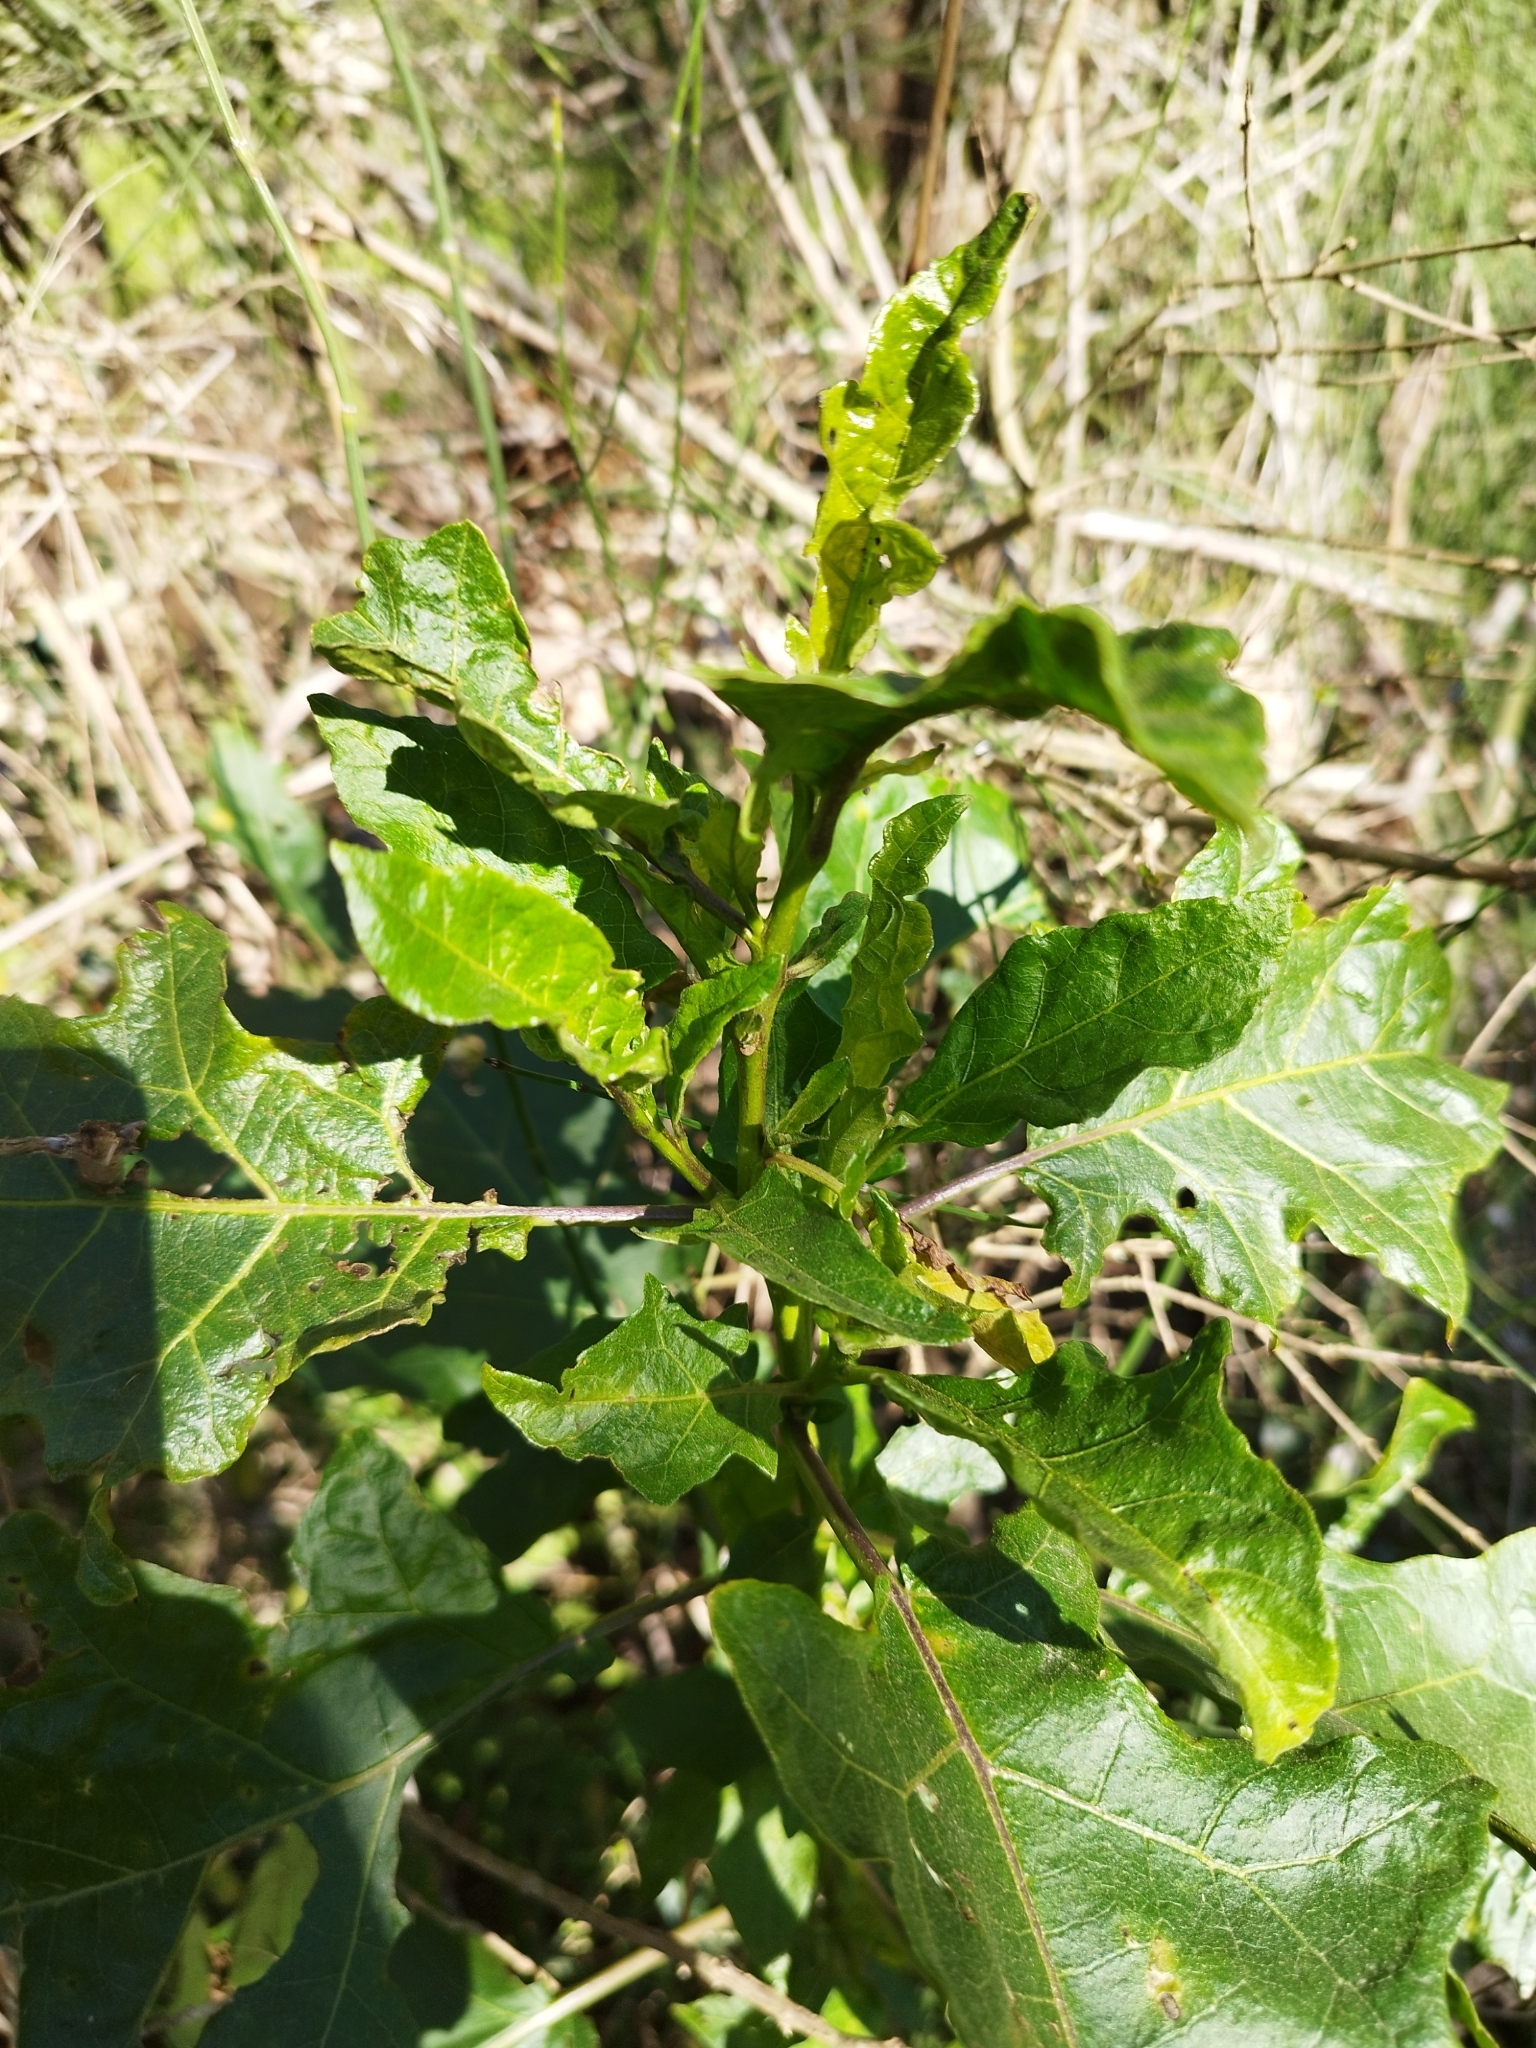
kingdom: Plantae
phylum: Tracheophyta
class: Magnoliopsida
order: Solanales
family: Solanaceae
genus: Solanum
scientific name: Solanum bonariense
